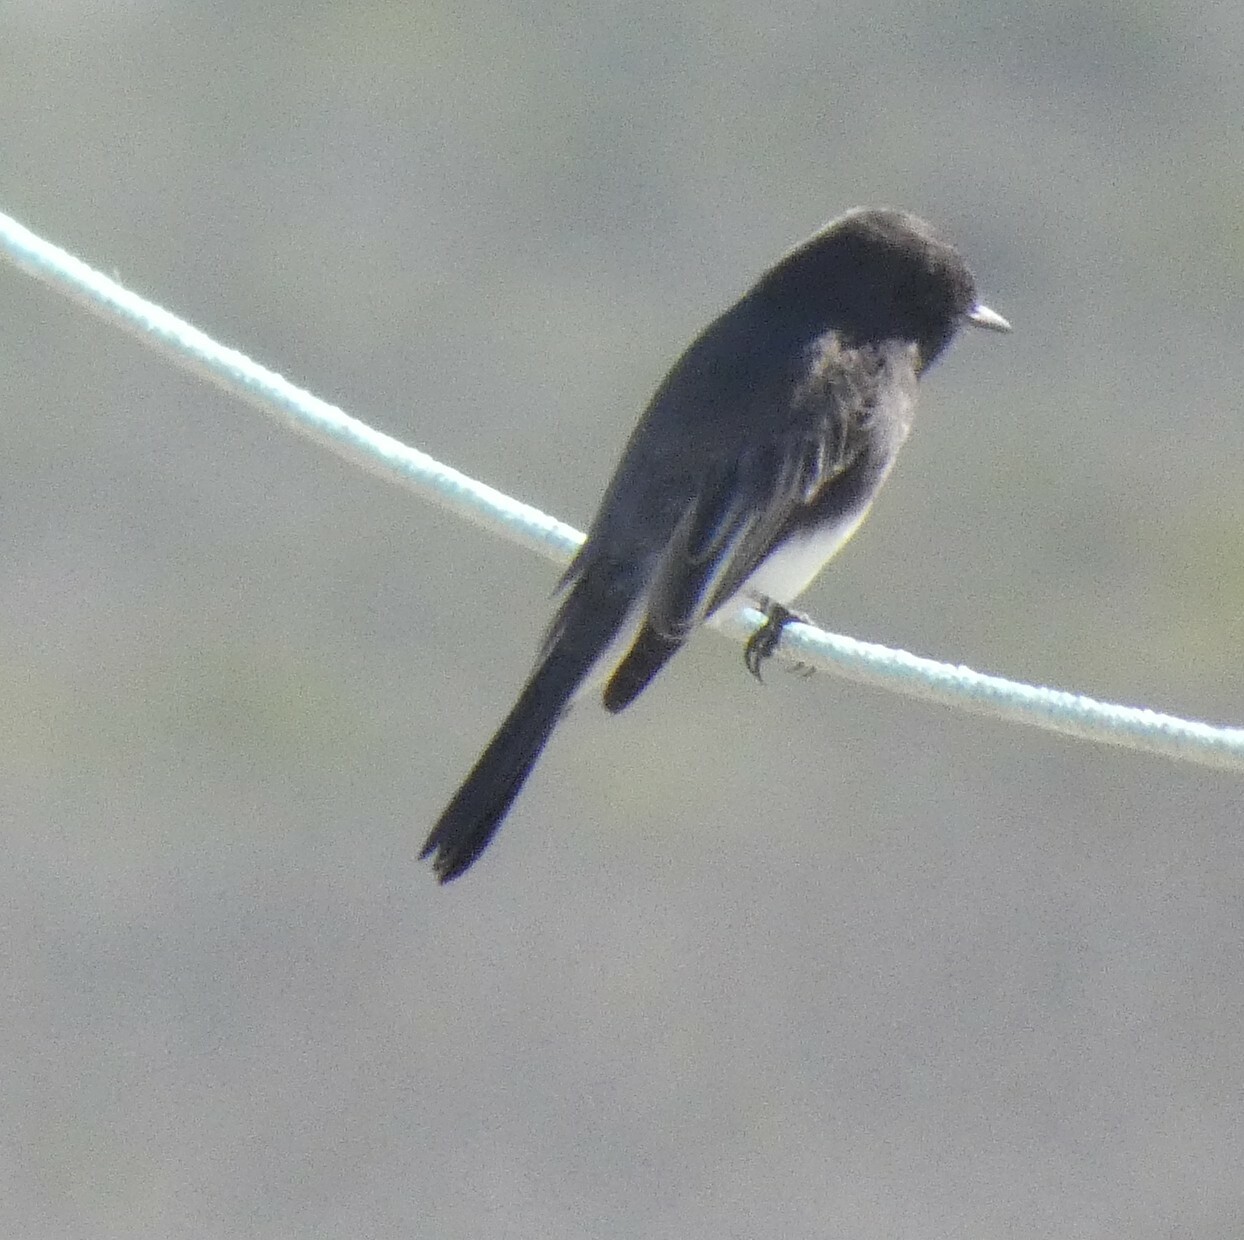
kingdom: Animalia
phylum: Chordata
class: Aves
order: Passeriformes
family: Tyrannidae
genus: Sayornis
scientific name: Sayornis nigricans
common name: Black phoebe
